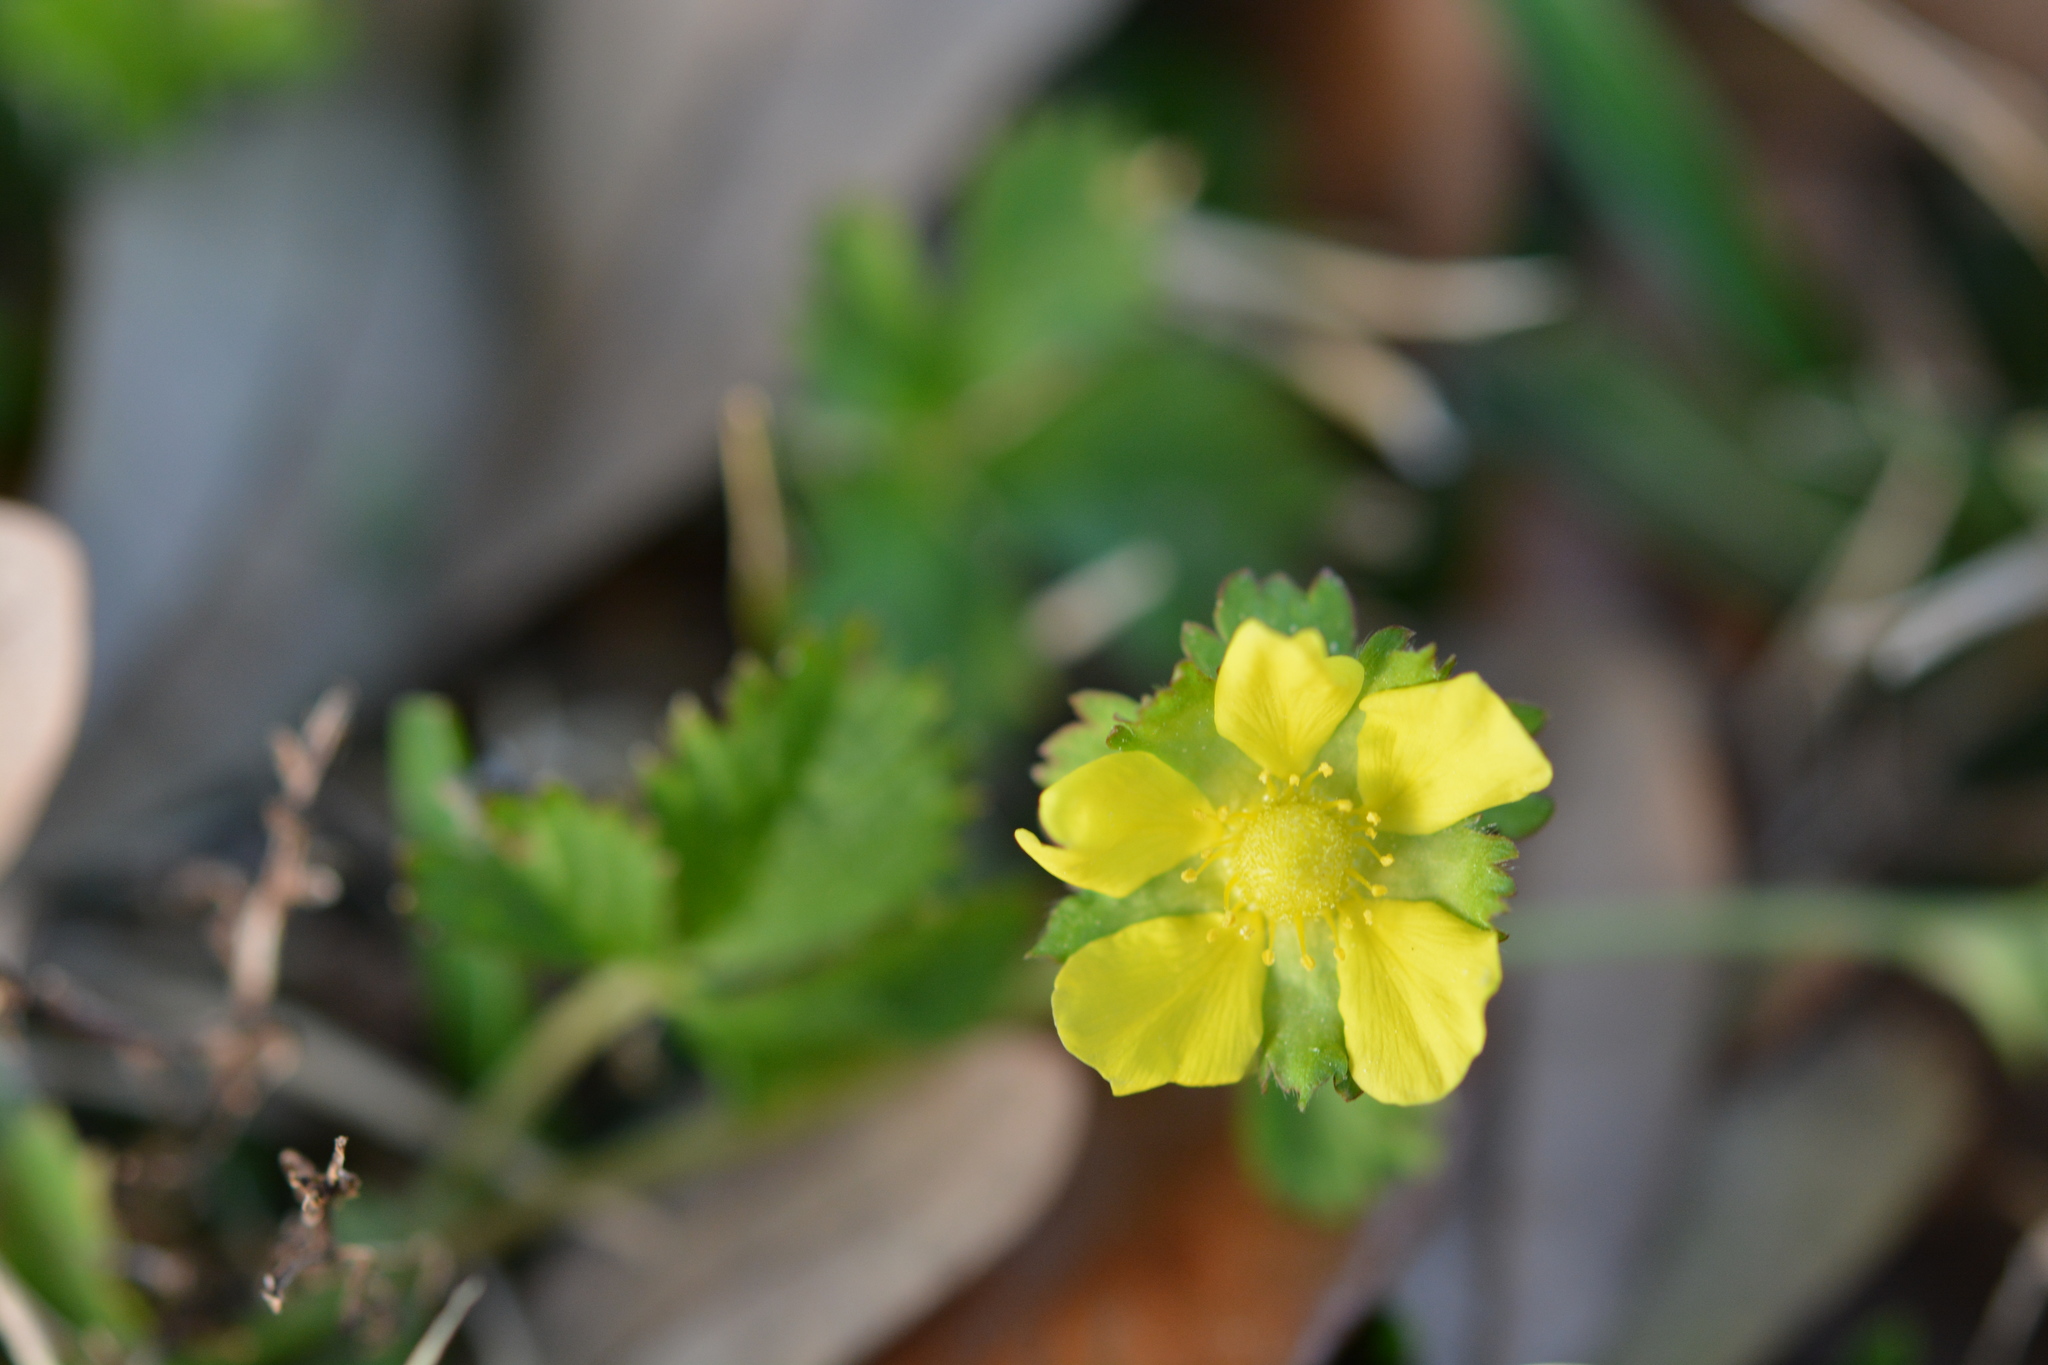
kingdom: Plantae
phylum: Tracheophyta
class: Magnoliopsida
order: Rosales
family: Rosaceae
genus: Potentilla
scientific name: Potentilla indica
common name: Yellow-flowered strawberry
